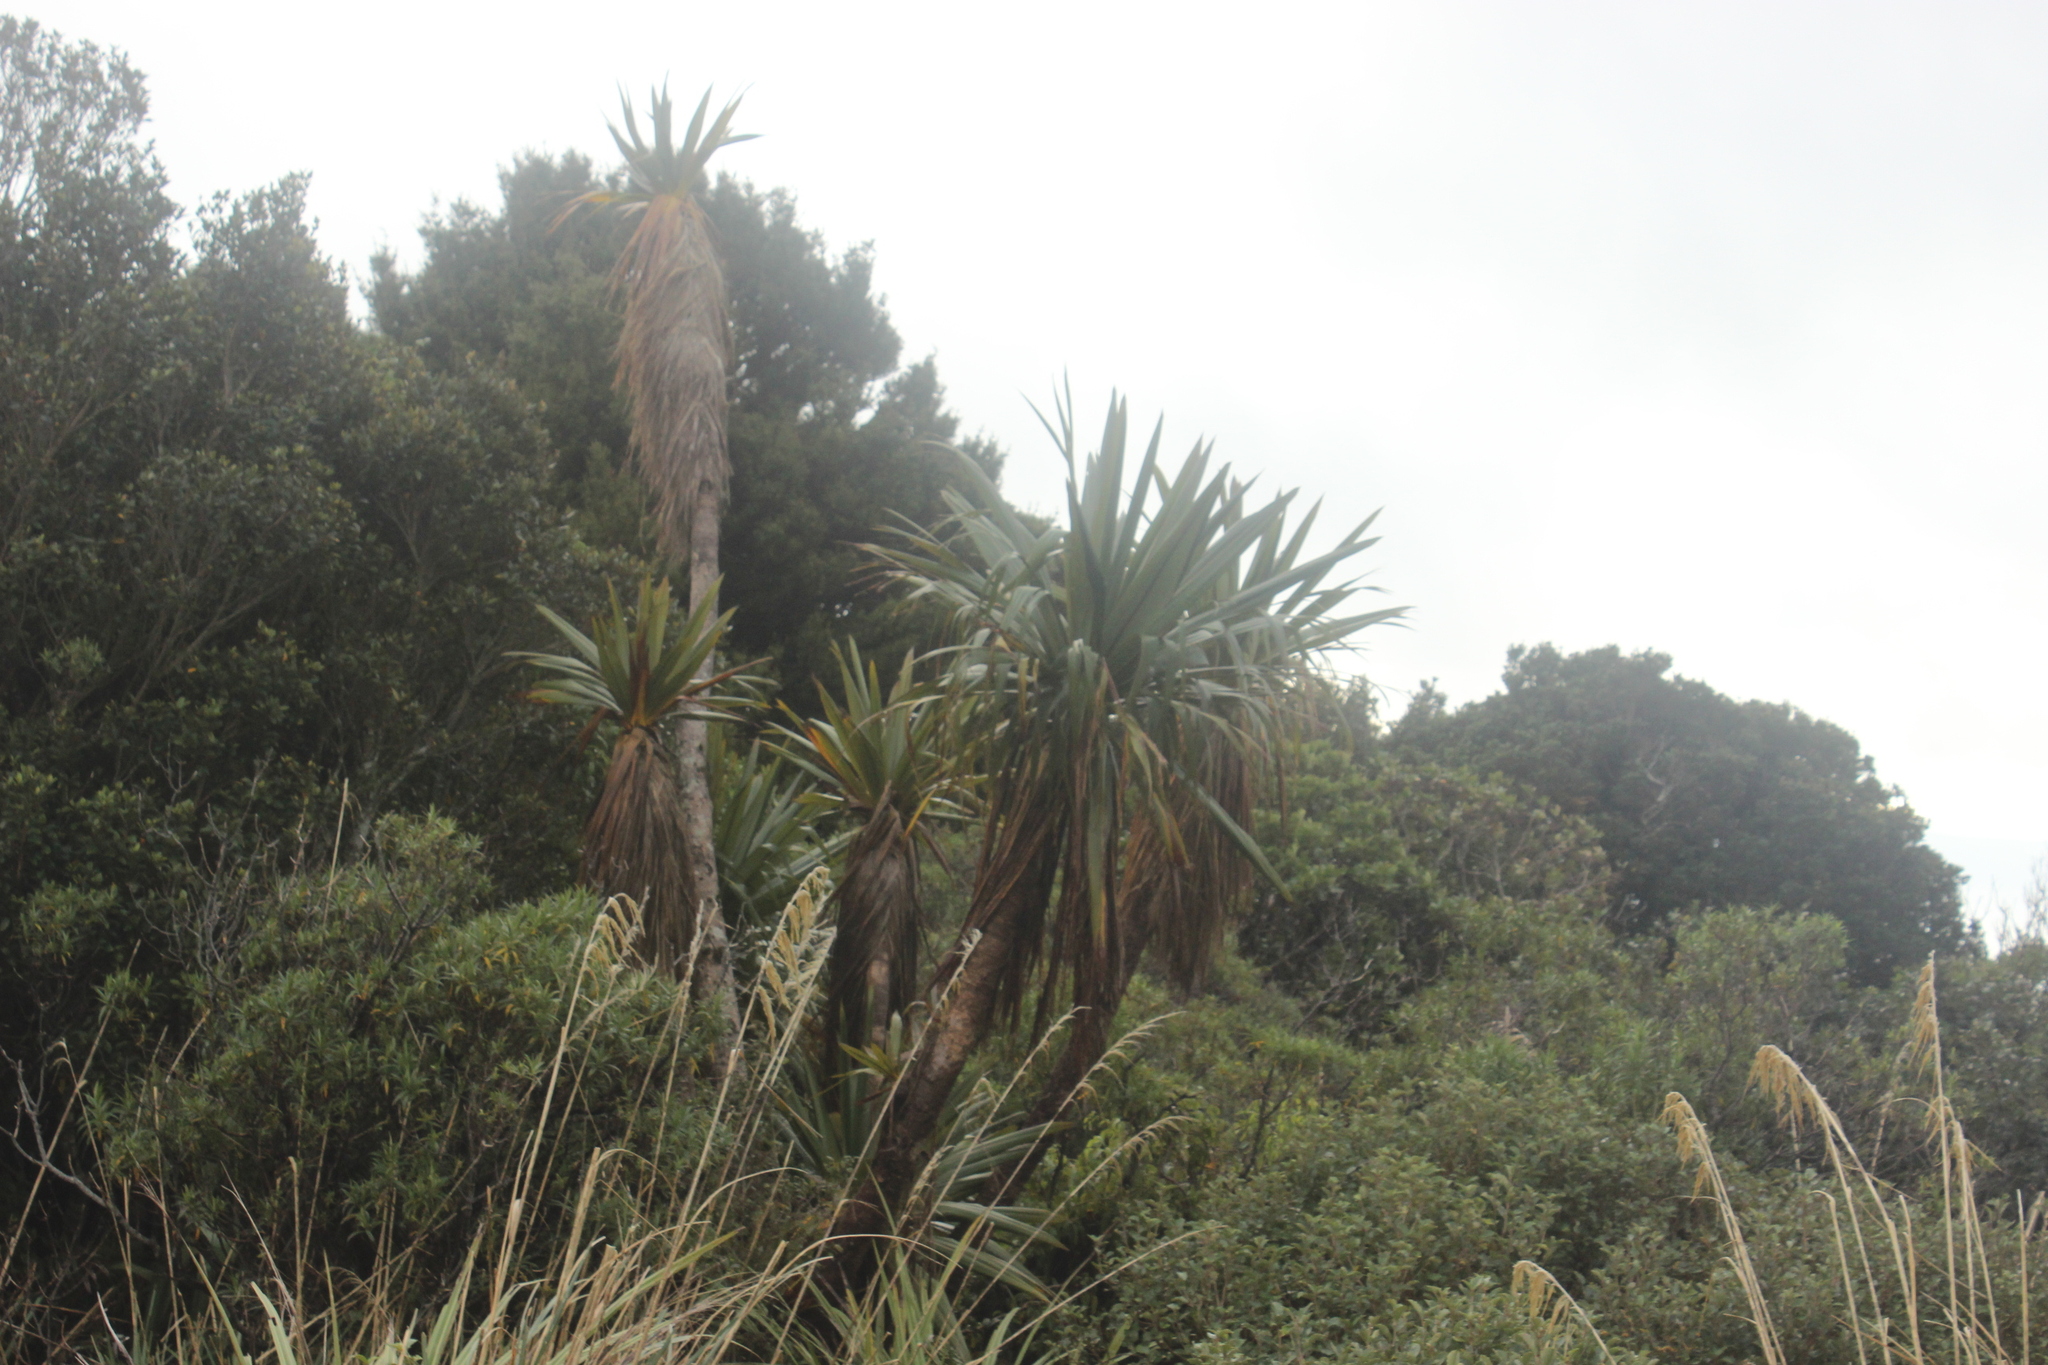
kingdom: Plantae
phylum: Tracheophyta
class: Liliopsida
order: Asparagales
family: Asparagaceae
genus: Cordyline
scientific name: Cordyline indivisa
